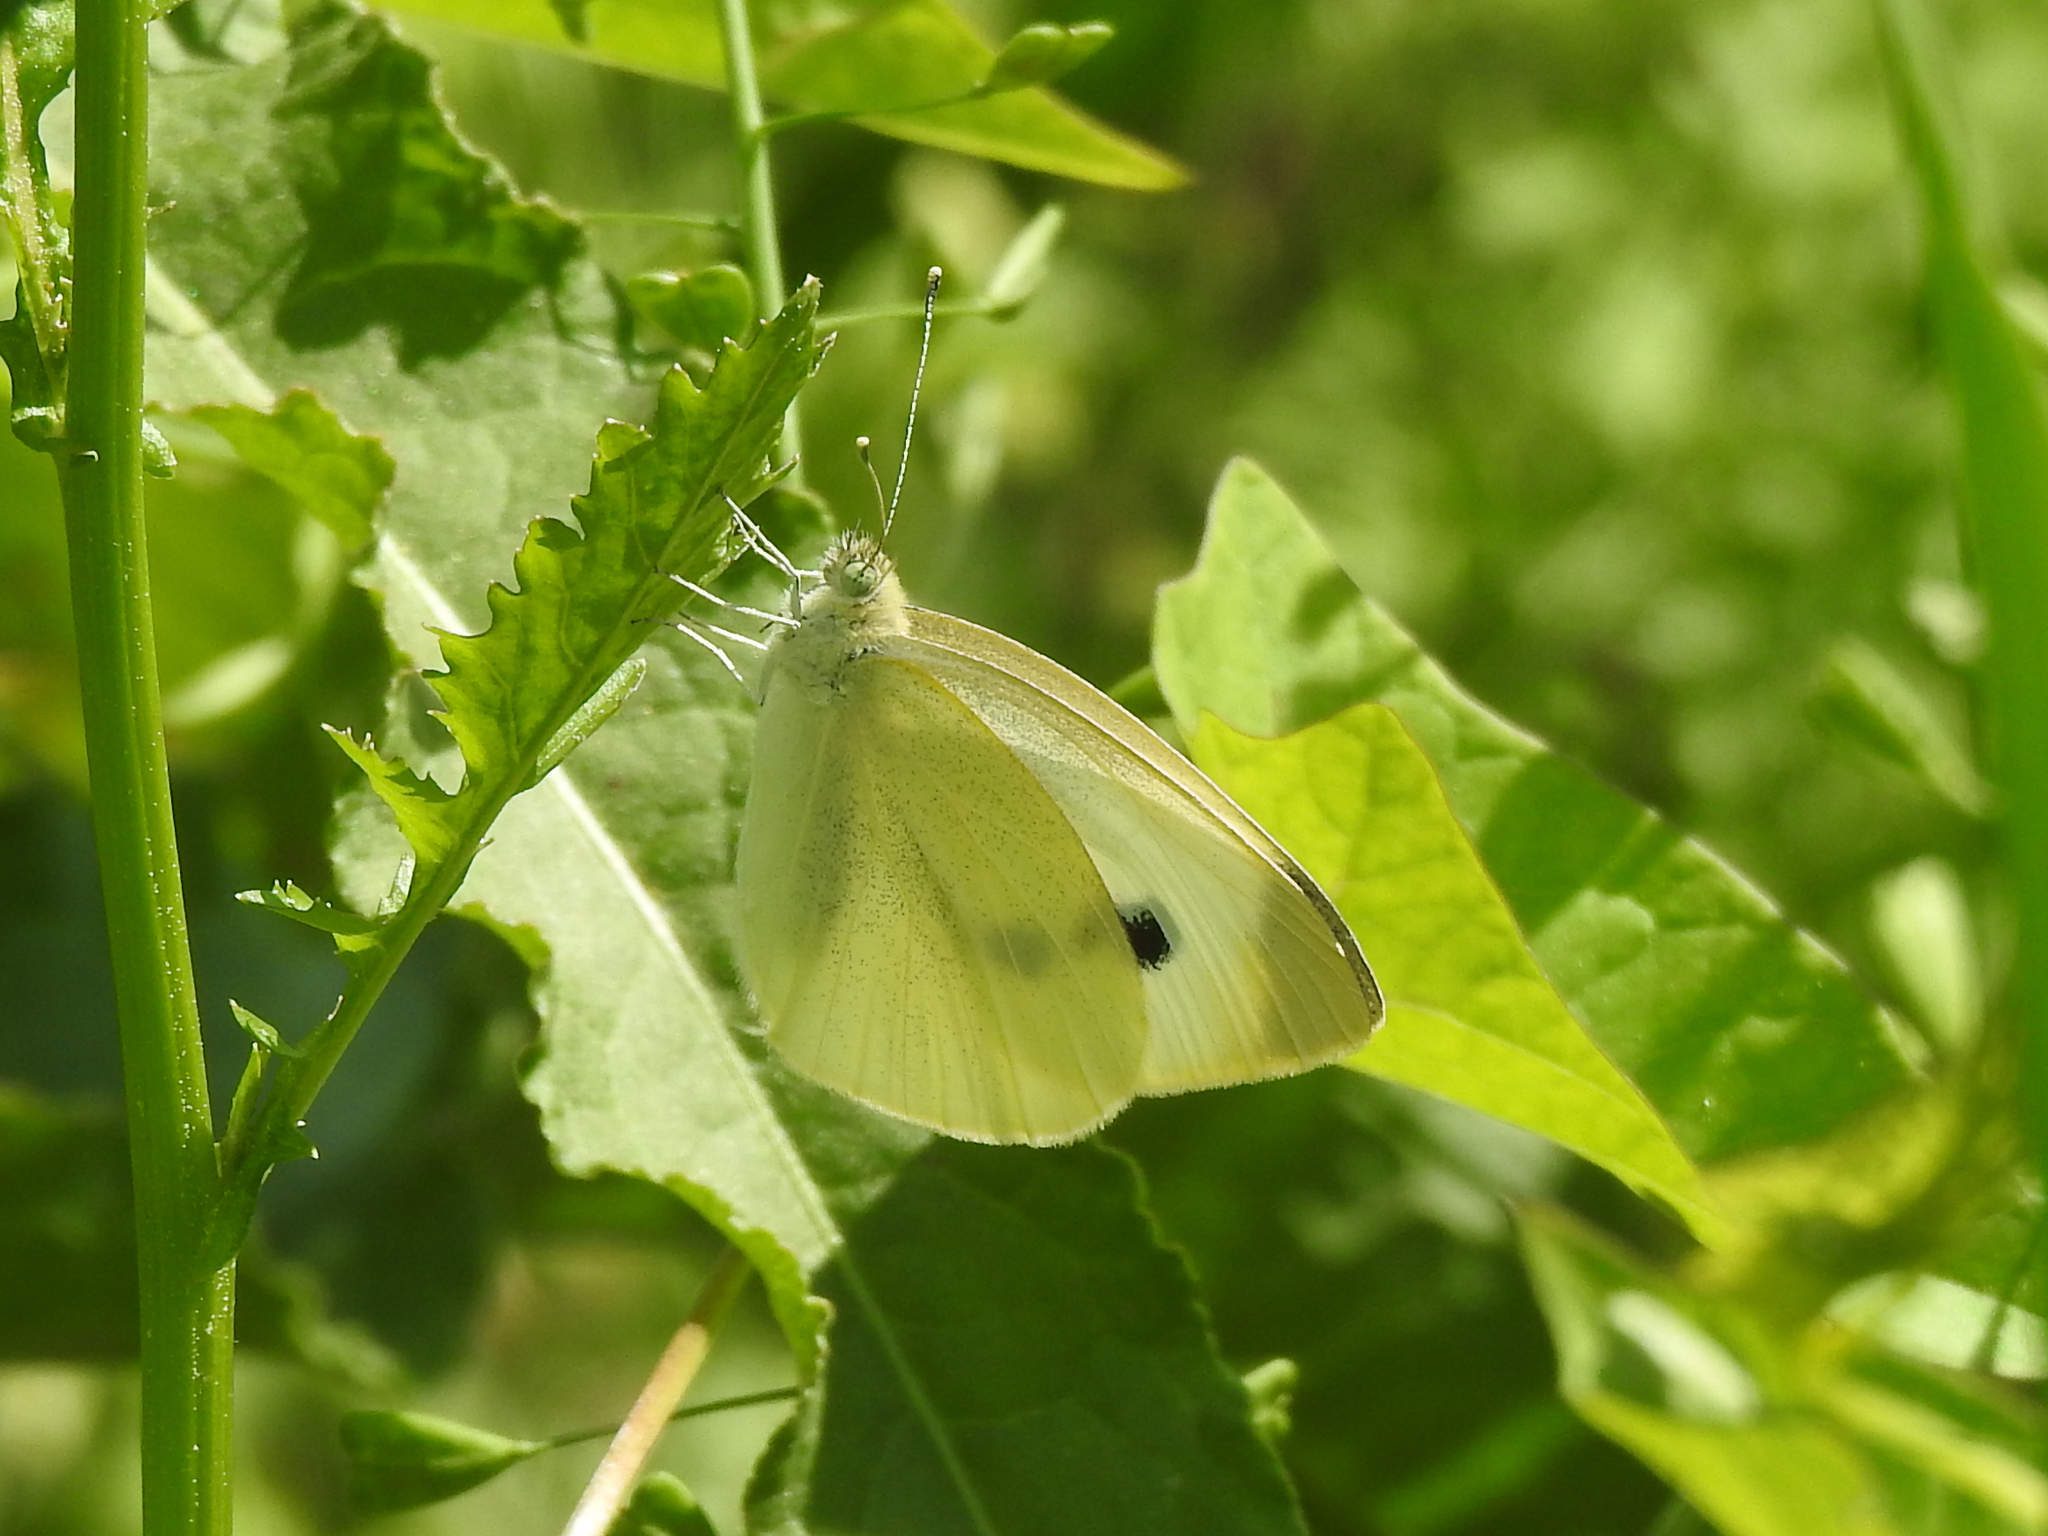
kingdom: Animalia
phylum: Arthropoda
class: Insecta
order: Lepidoptera
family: Pieridae
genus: Pieris
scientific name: Pieris rapae
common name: Small white
